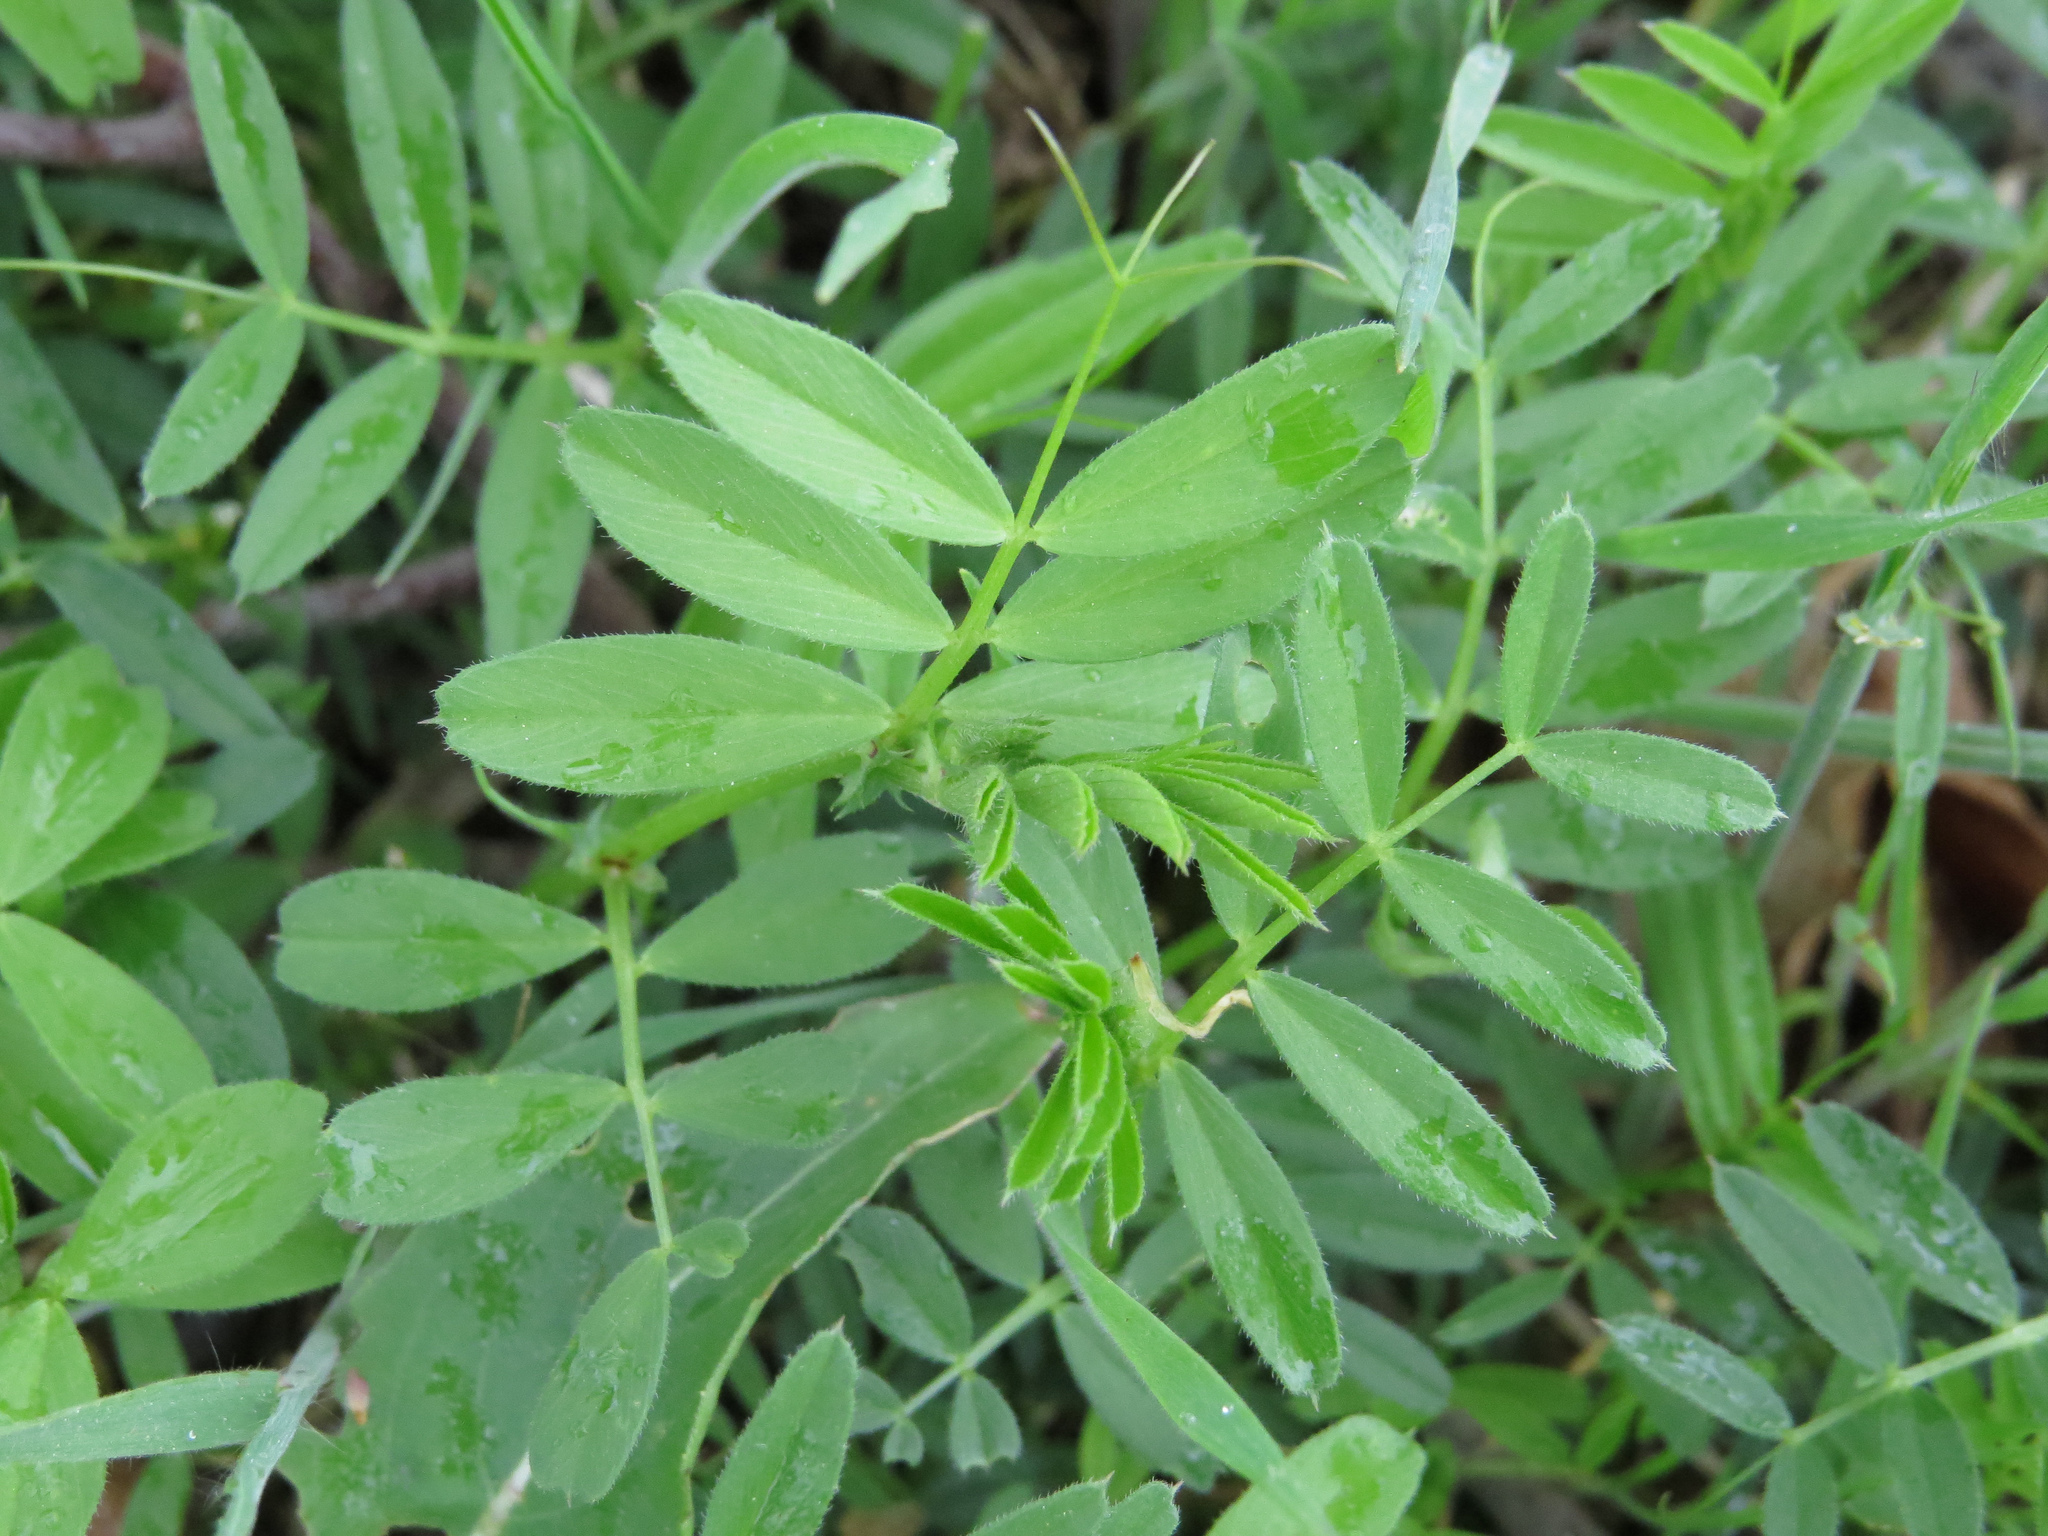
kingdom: Plantae
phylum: Tracheophyta
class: Magnoliopsida
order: Fabales
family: Fabaceae
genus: Vicia
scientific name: Vicia
